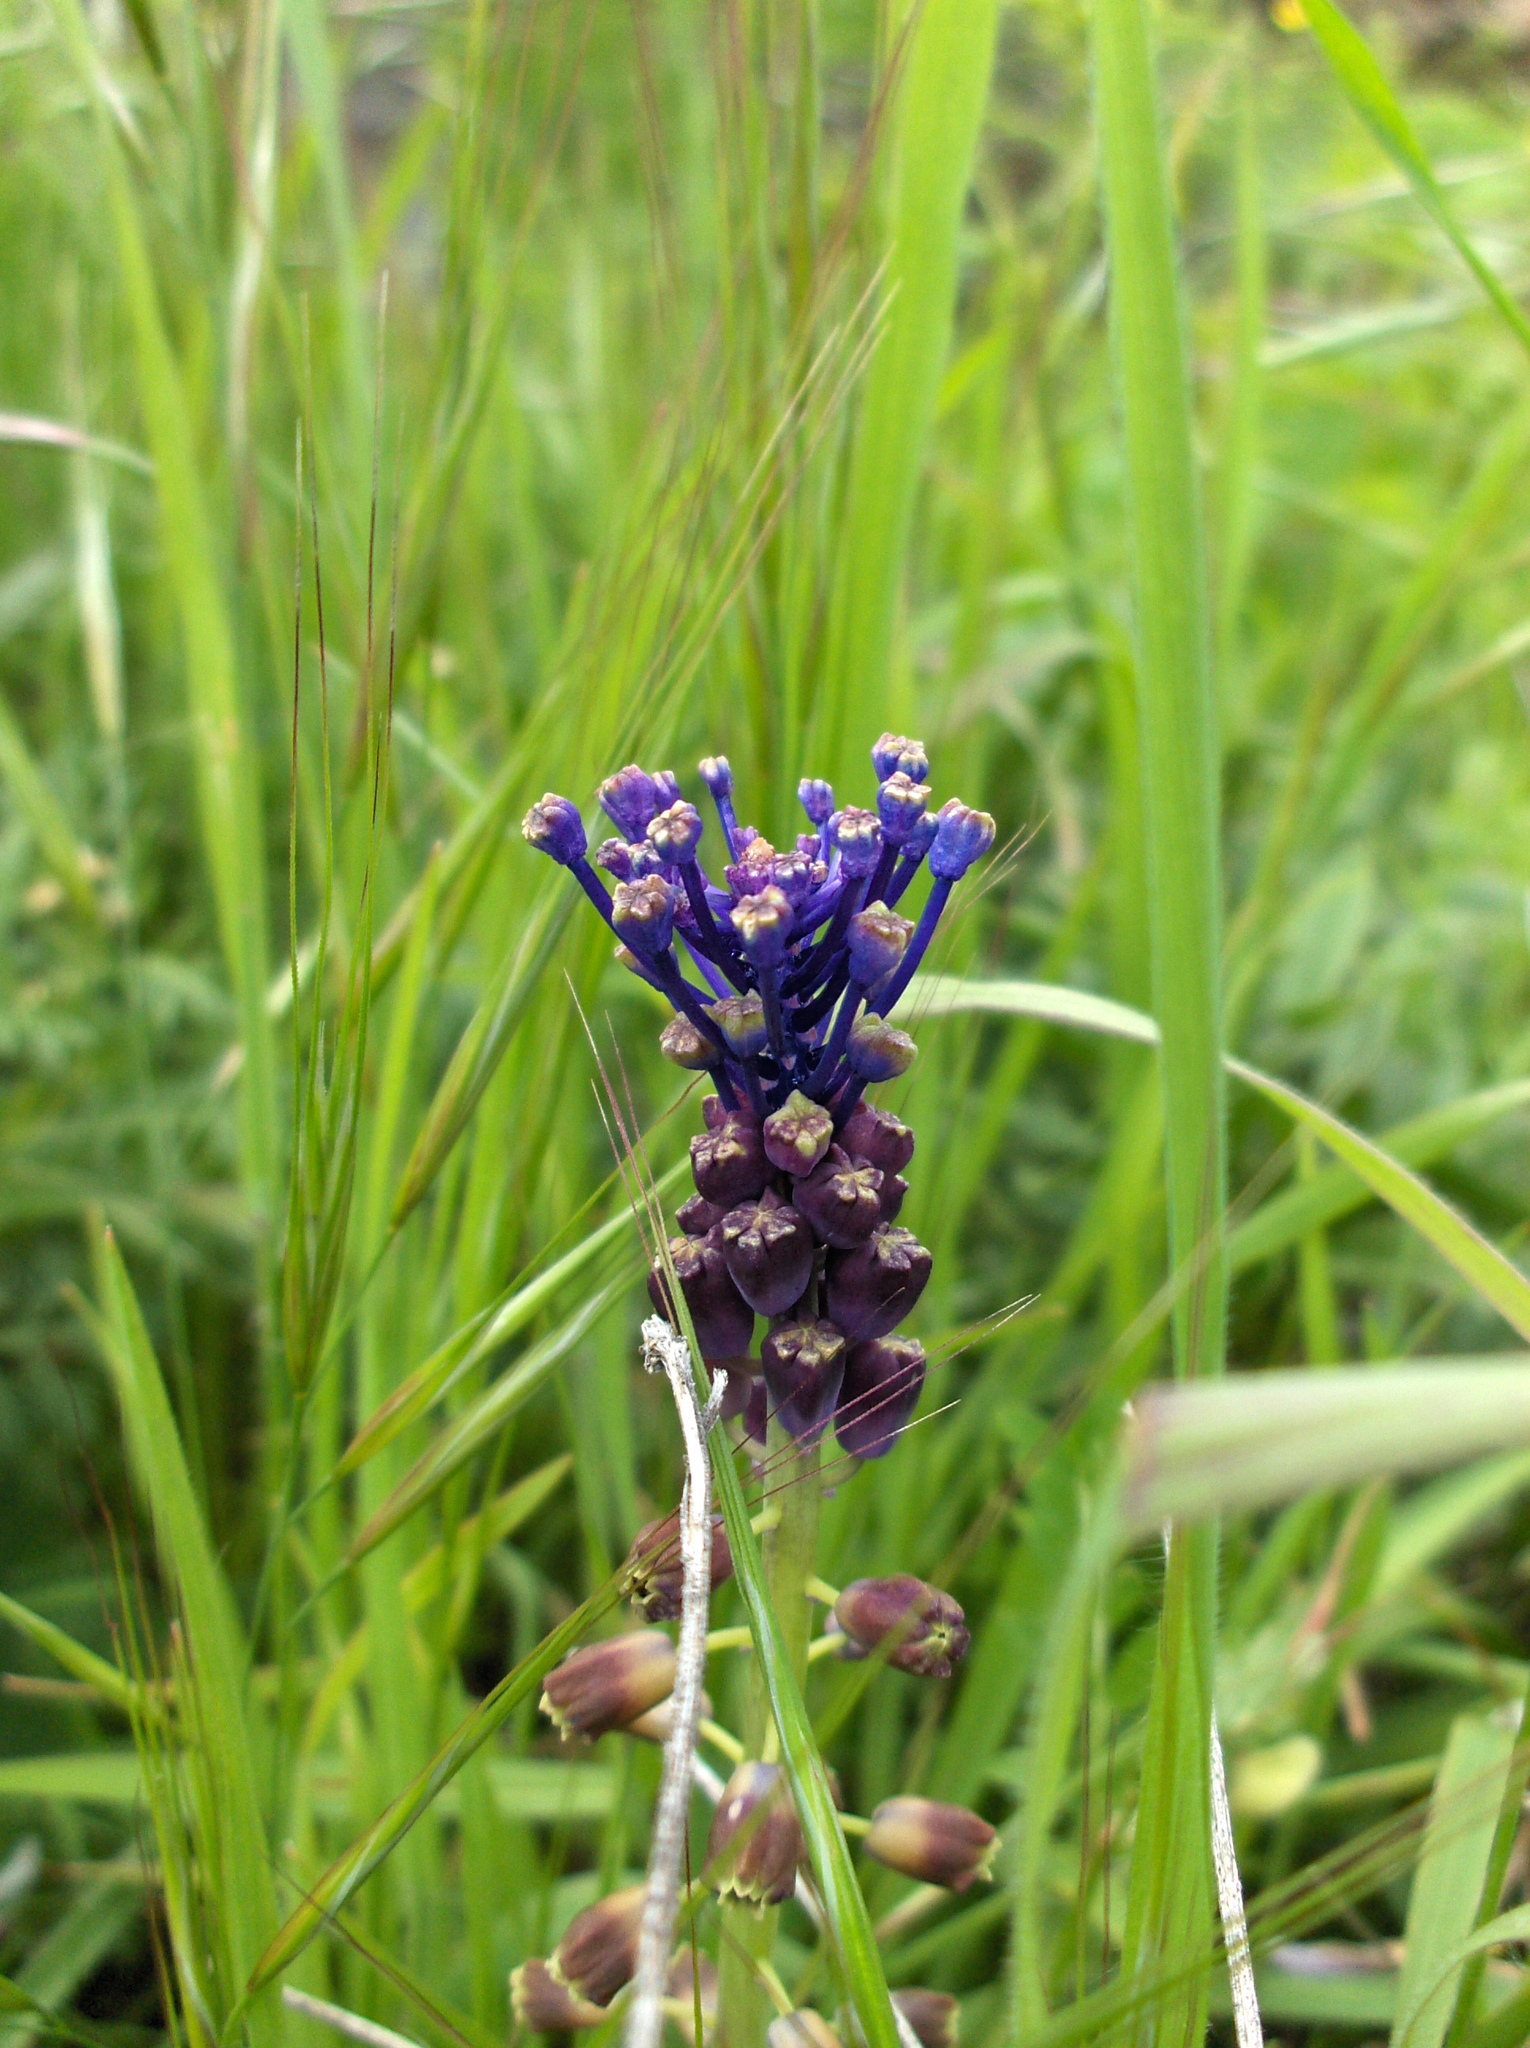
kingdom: Plantae
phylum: Tracheophyta
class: Liliopsida
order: Asparagales
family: Asparagaceae
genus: Muscari
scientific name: Muscari comosum
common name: Tassel hyacinth
